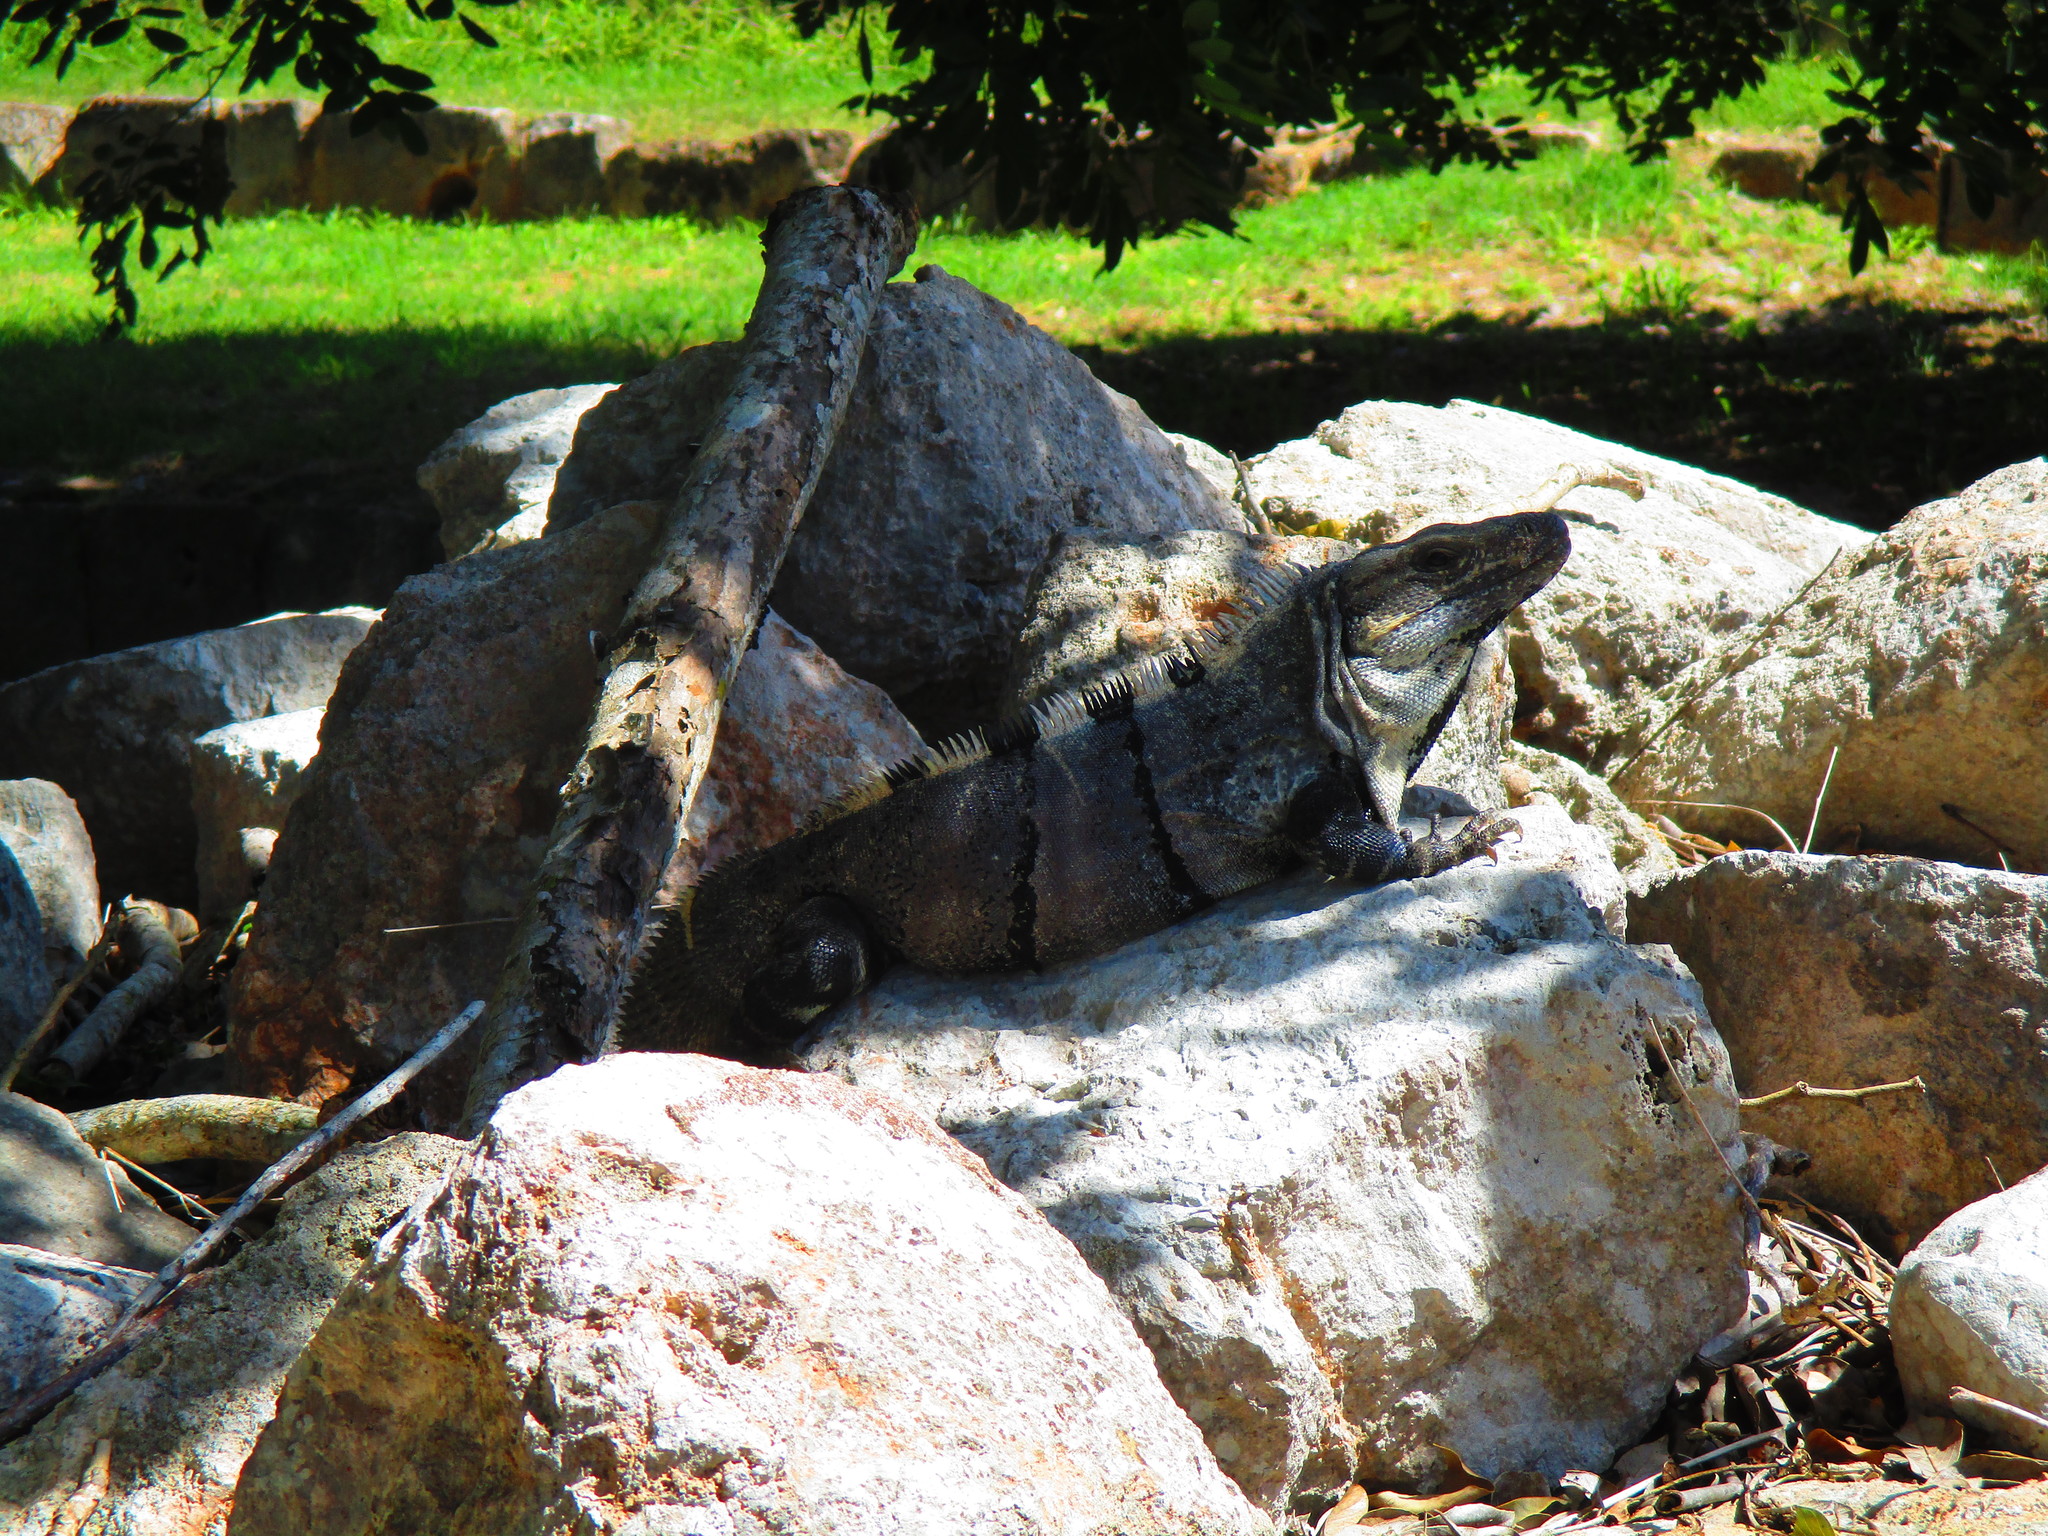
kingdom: Animalia
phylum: Chordata
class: Squamata
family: Iguanidae
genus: Ctenosaura
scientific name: Ctenosaura similis
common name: Black spiny-tailed iguana
